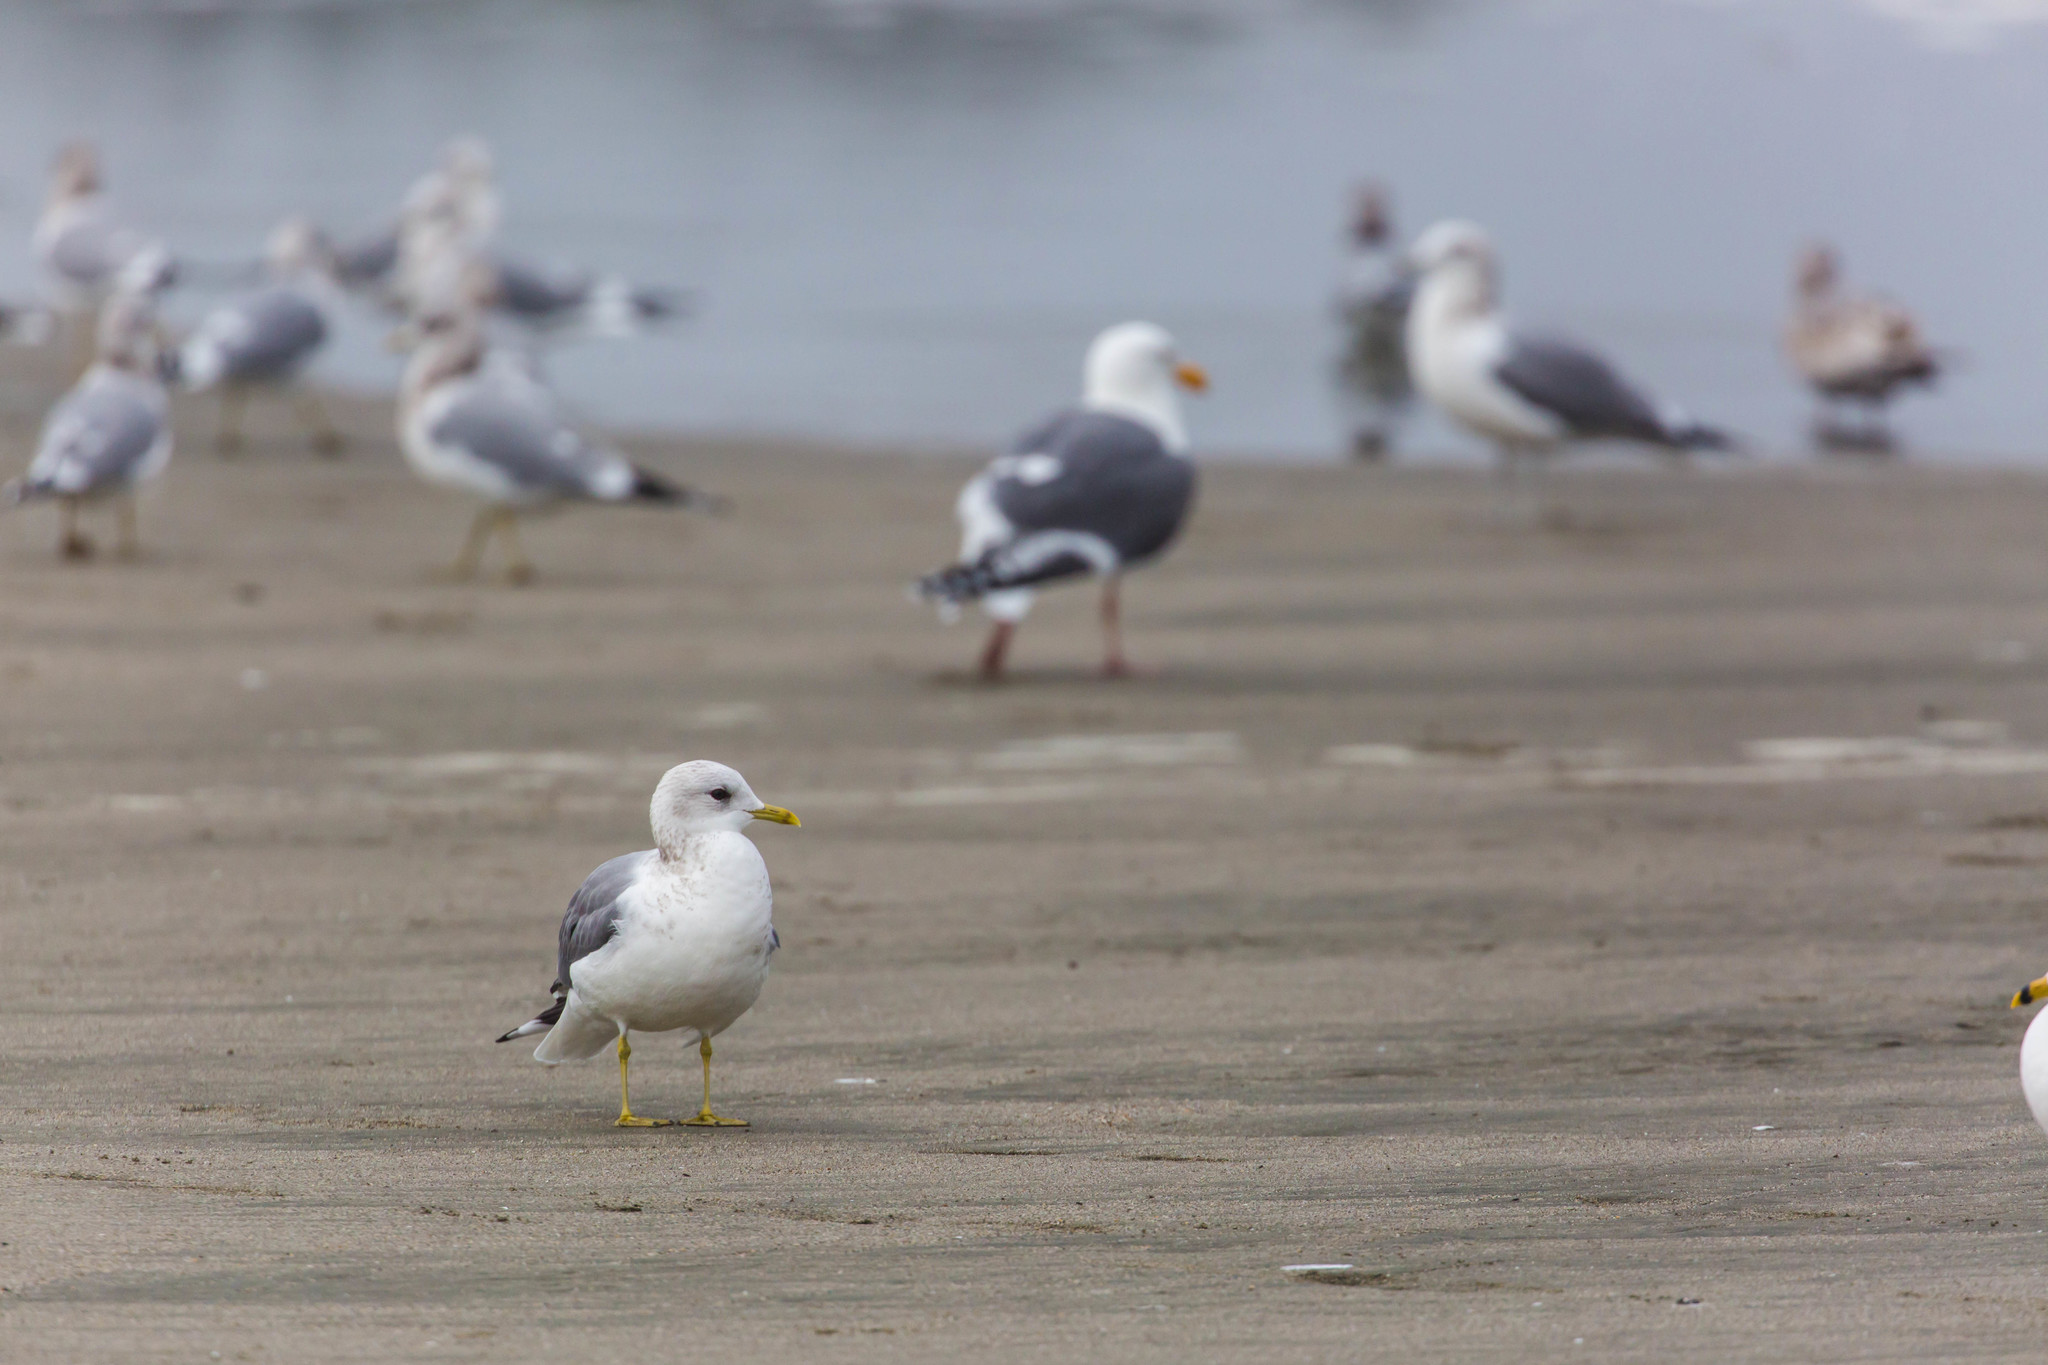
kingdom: Animalia
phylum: Chordata
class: Aves
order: Charadriiformes
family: Laridae
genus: Larus
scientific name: Larus brachyrhynchus
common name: Short-billed gull
